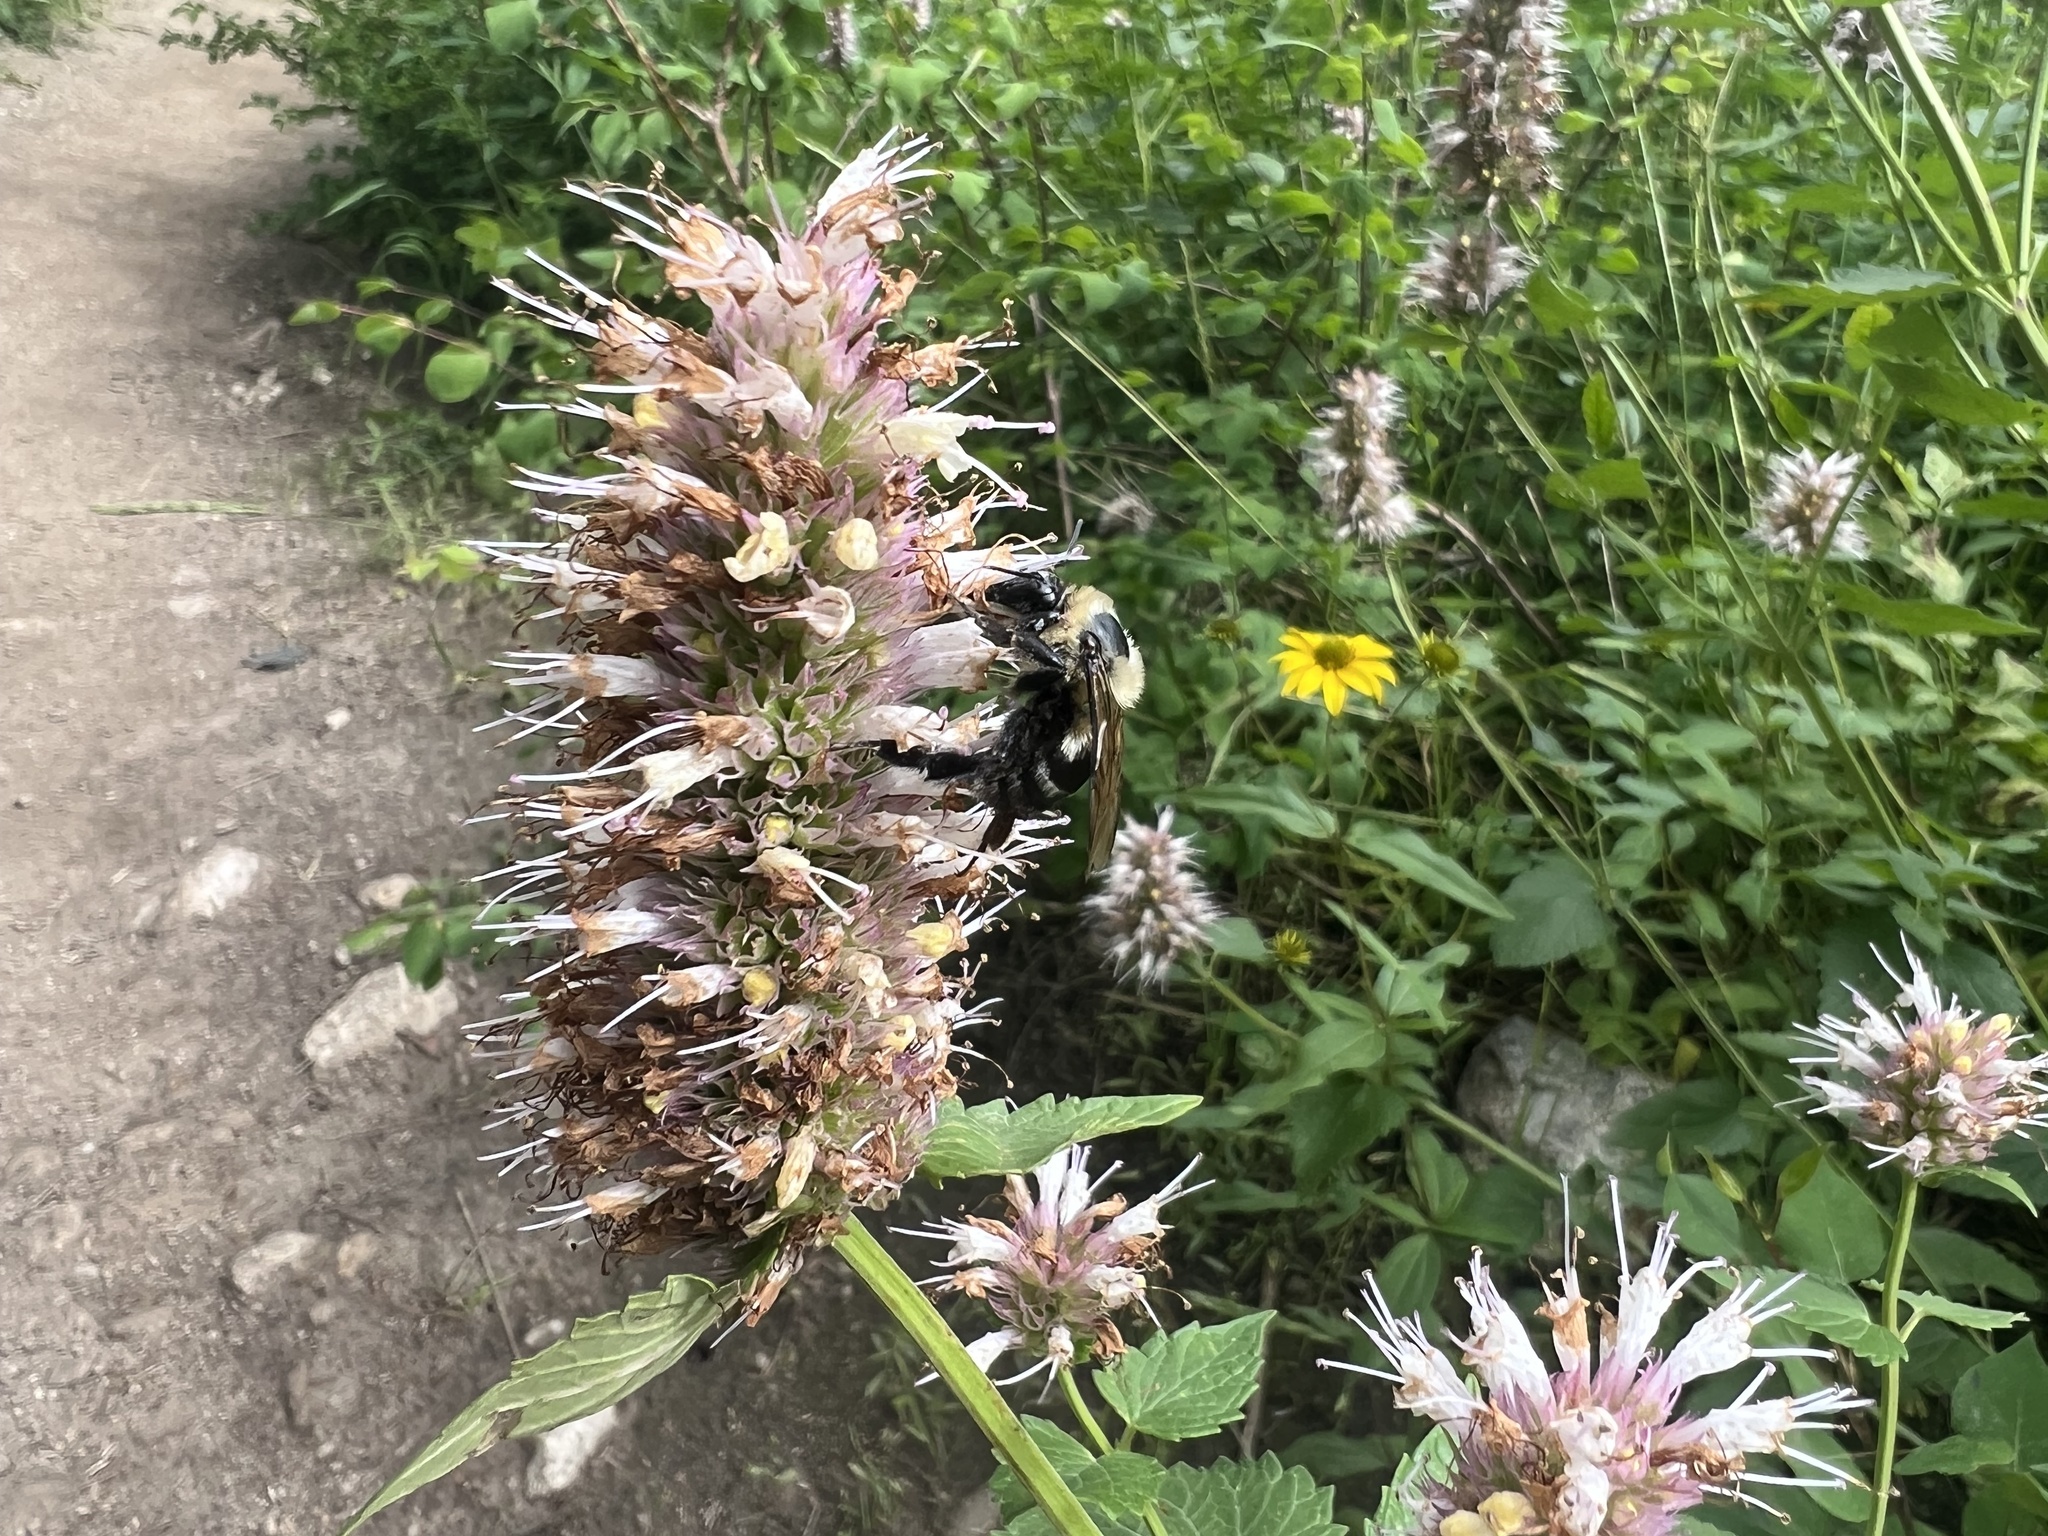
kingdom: Animalia
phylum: Arthropoda
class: Insecta
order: Hymenoptera
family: Apidae
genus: Bombus
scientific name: Bombus griseocollis
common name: Brown-belted bumble bee
